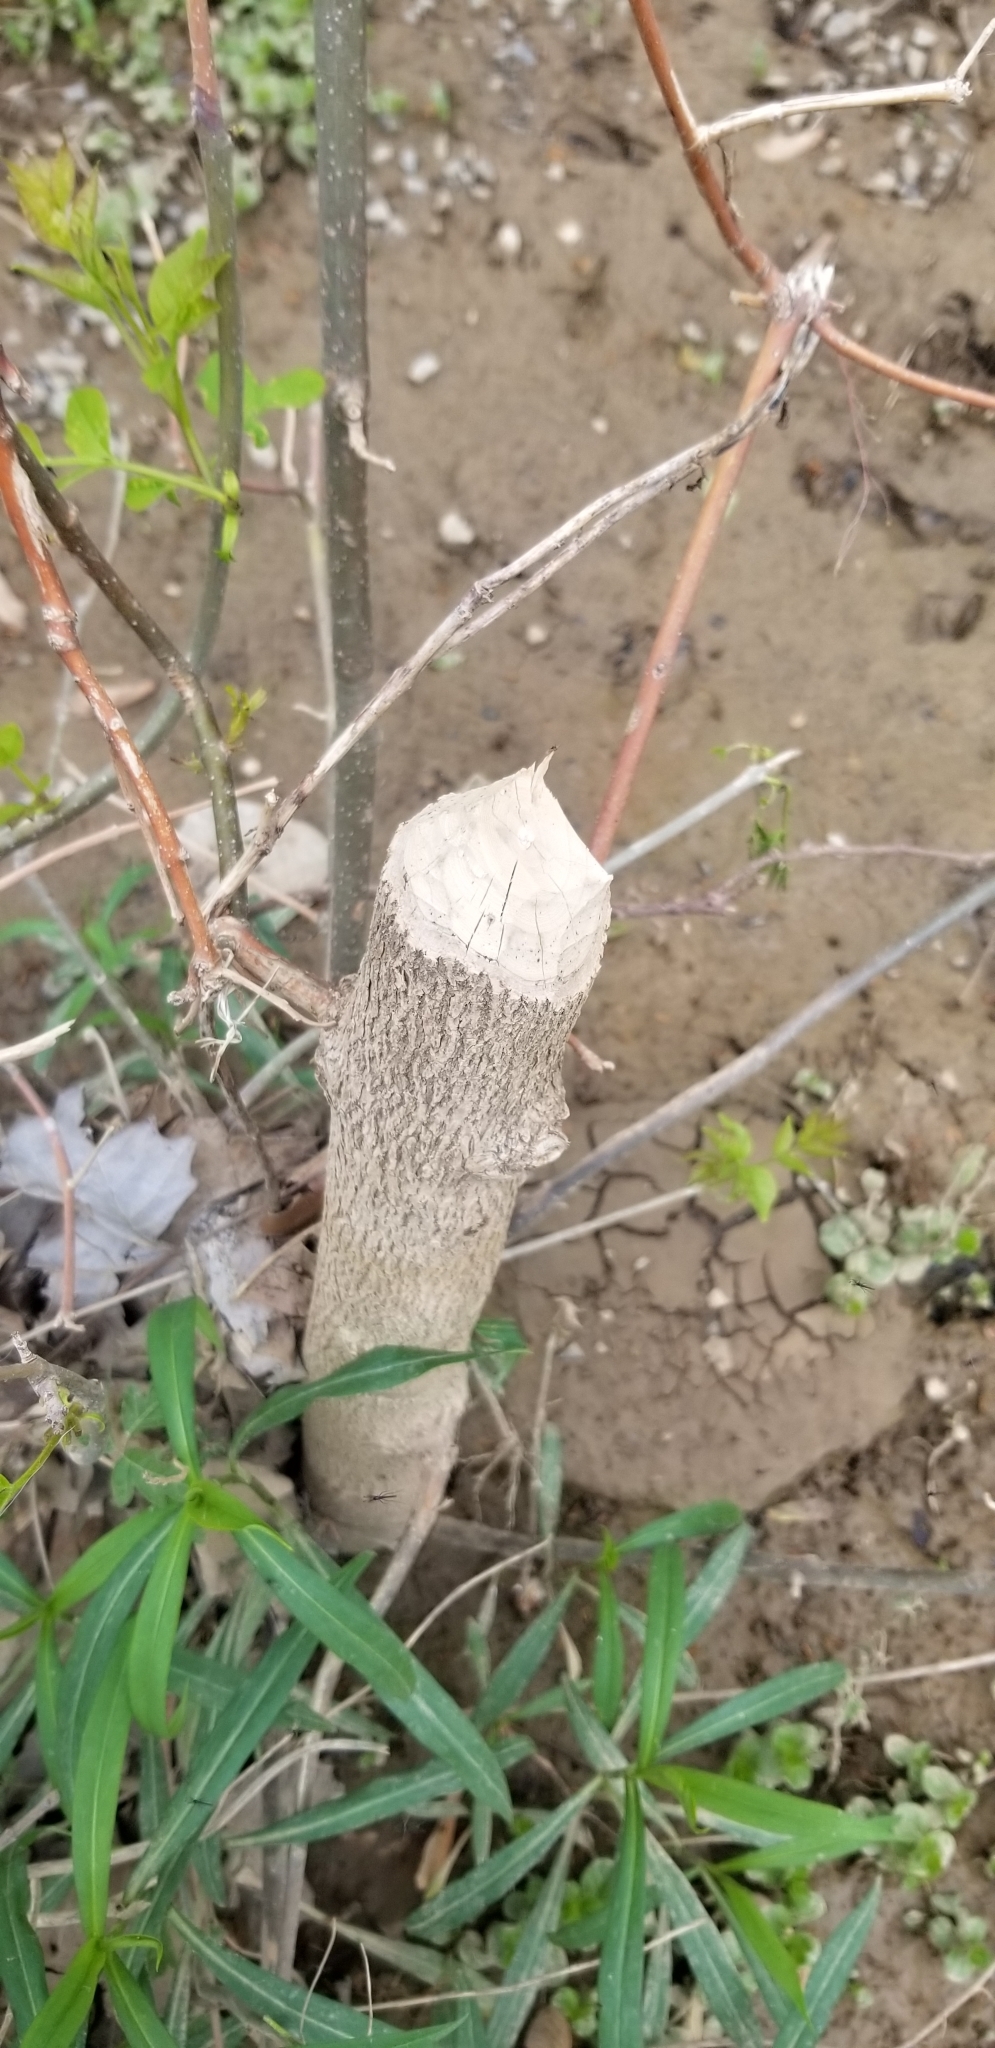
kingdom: Animalia
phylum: Chordata
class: Mammalia
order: Rodentia
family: Castoridae
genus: Castor
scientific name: Castor canadensis
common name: American beaver
